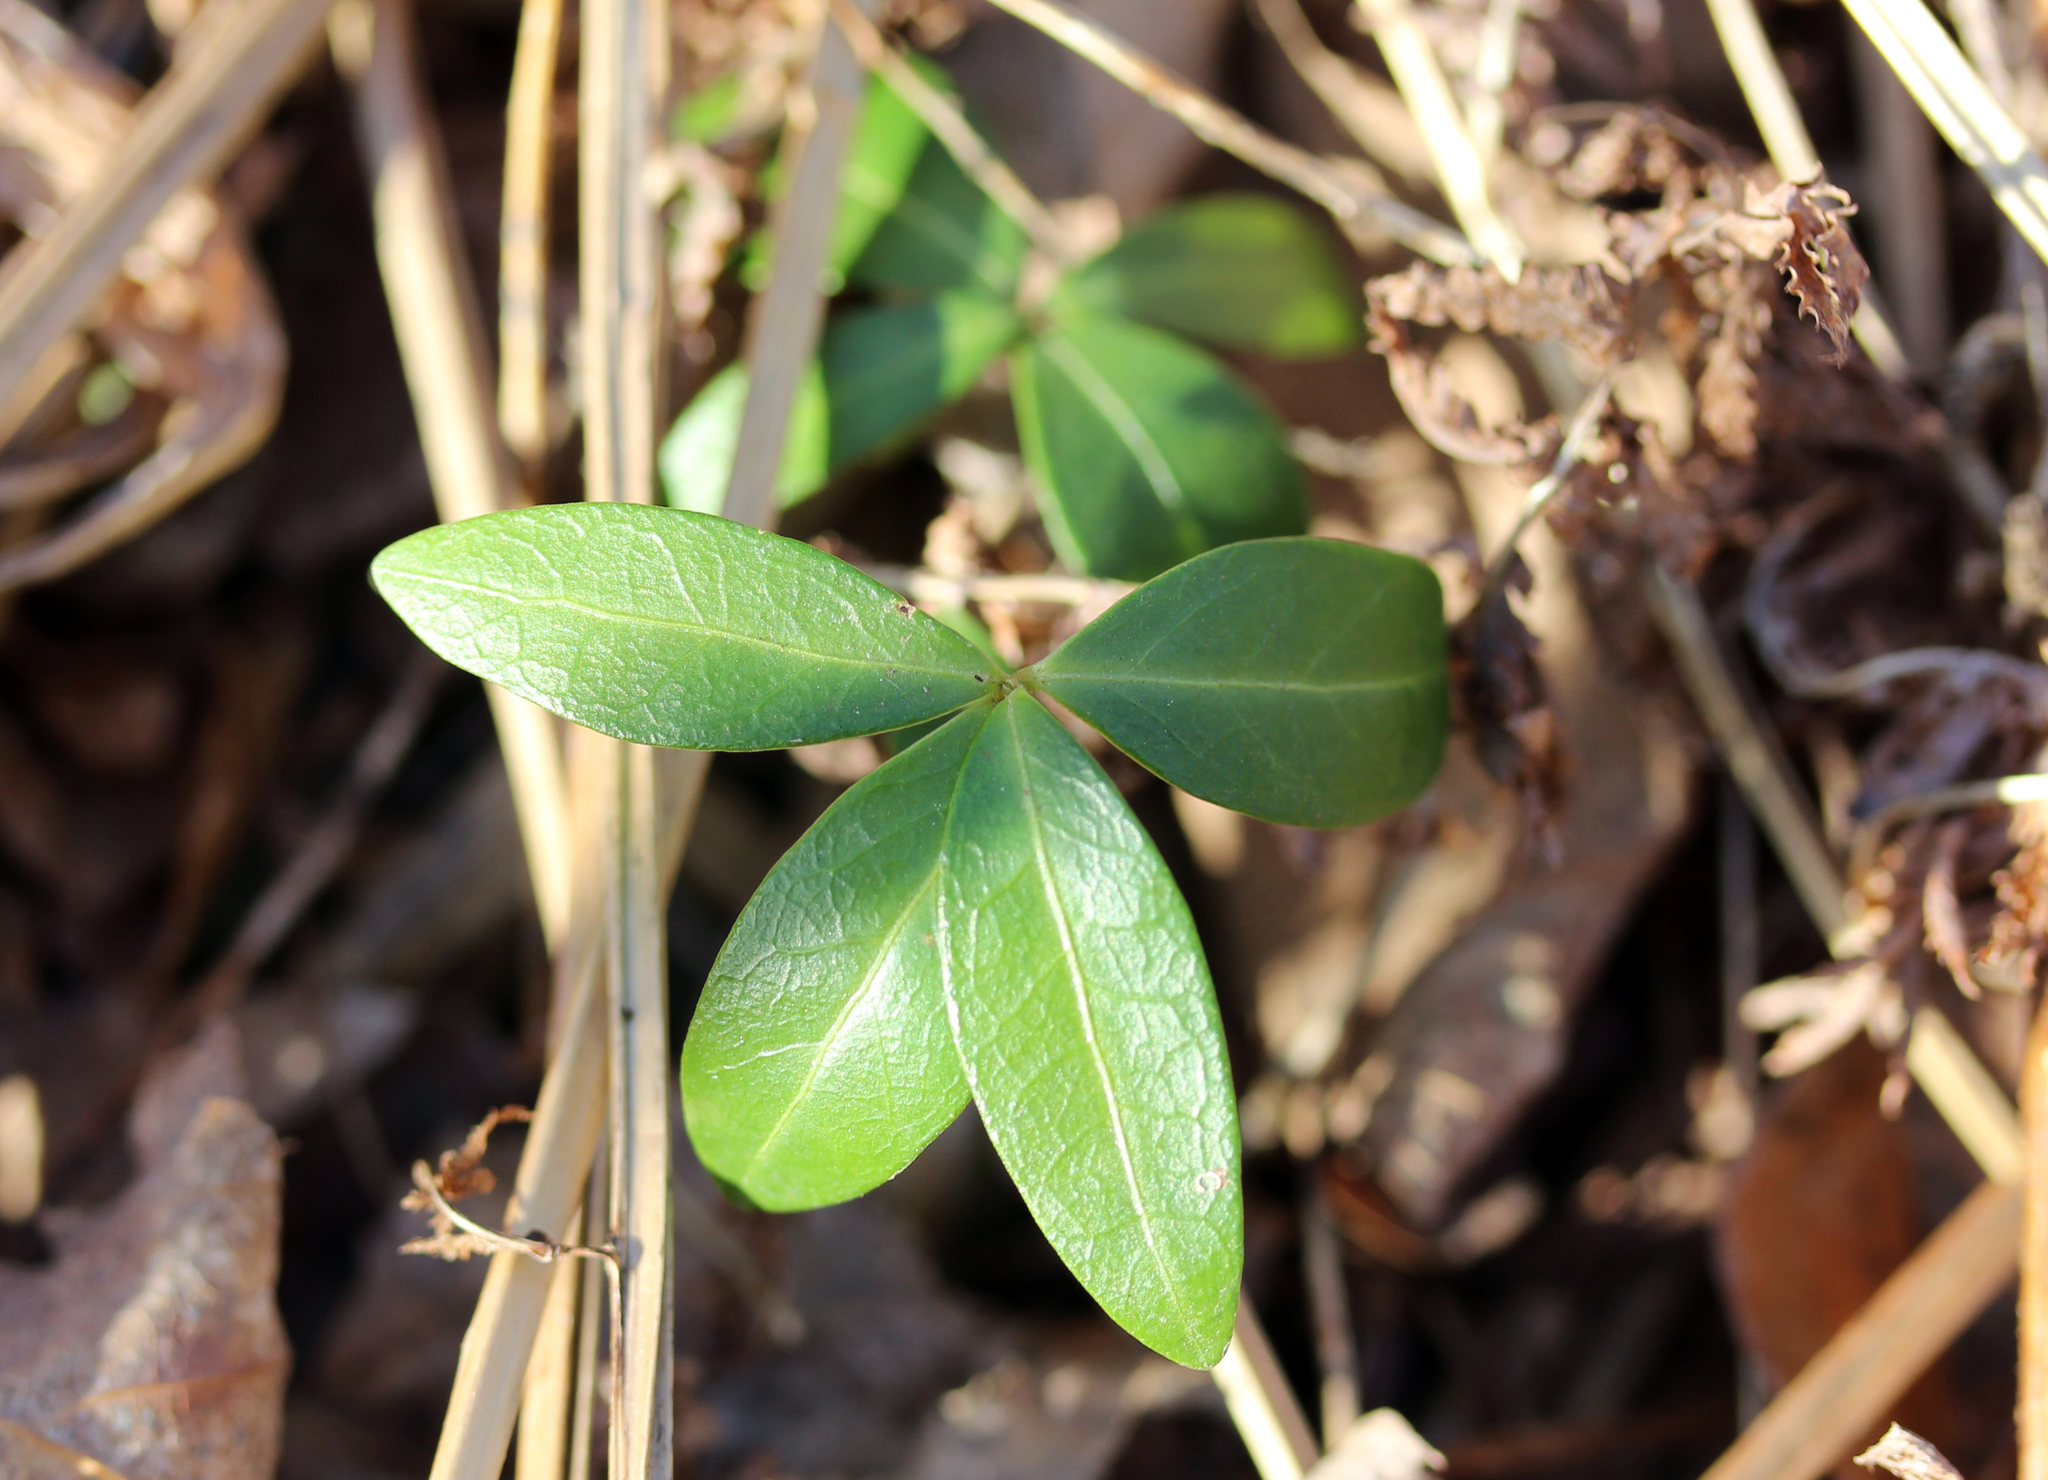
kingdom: Plantae
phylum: Tracheophyta
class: Magnoliopsida
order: Gentianales
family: Apocynaceae
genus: Vinca
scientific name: Vinca minor
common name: Lesser periwinkle
